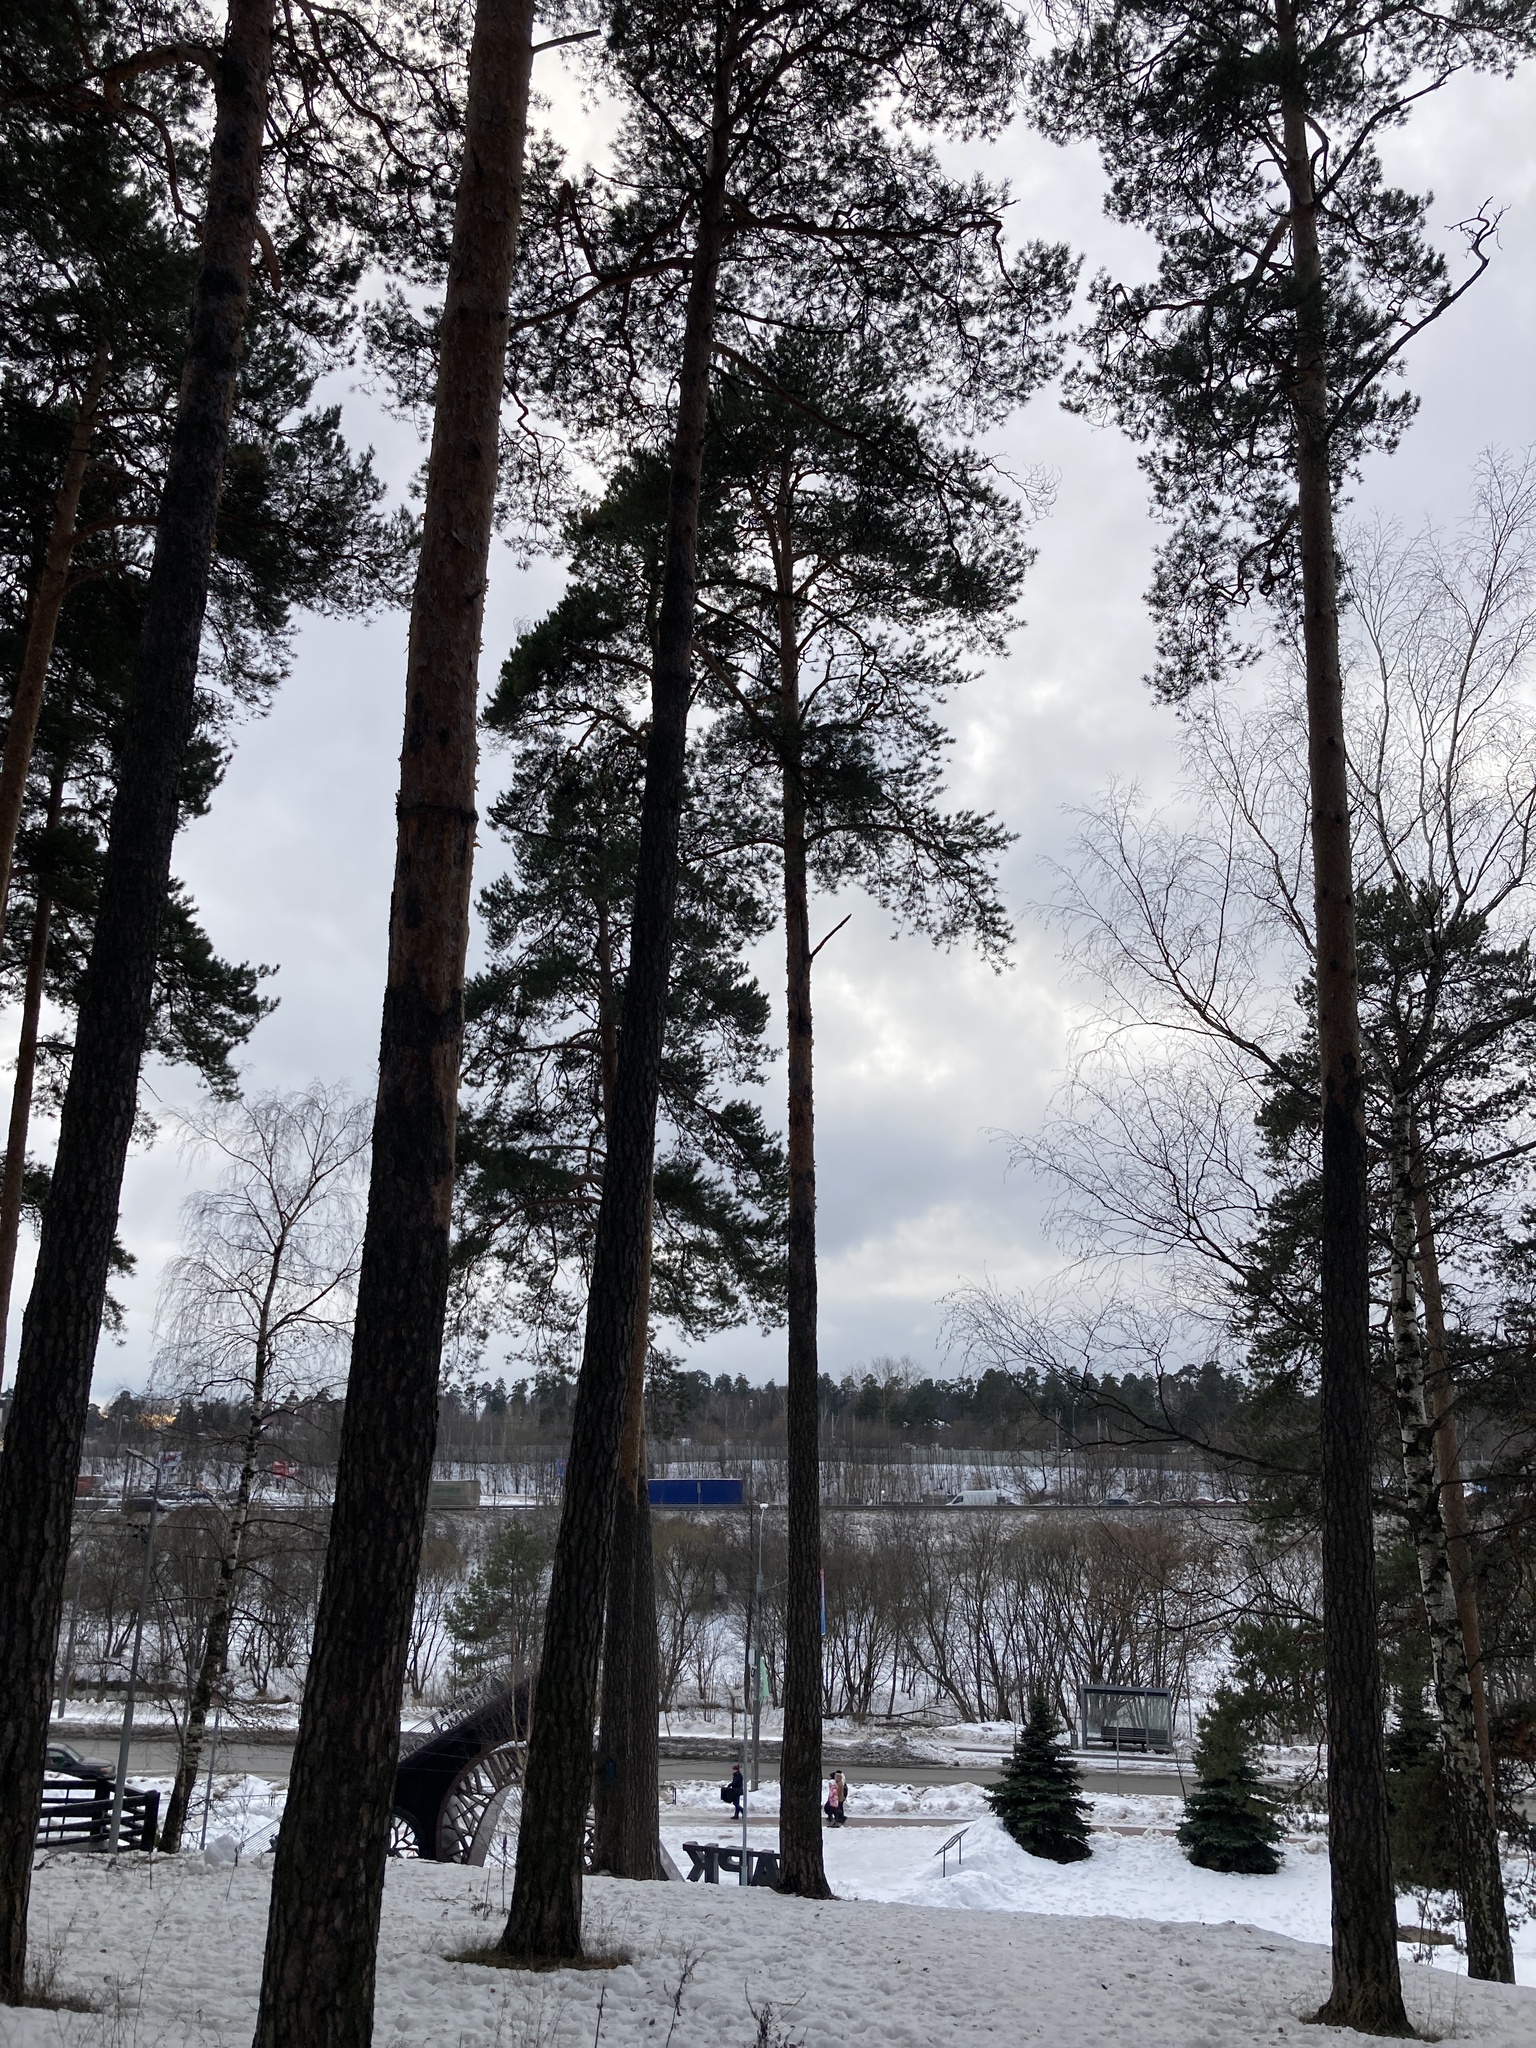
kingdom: Plantae
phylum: Tracheophyta
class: Pinopsida
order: Pinales
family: Pinaceae
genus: Pinus
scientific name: Pinus sylvestris
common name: Scots pine
